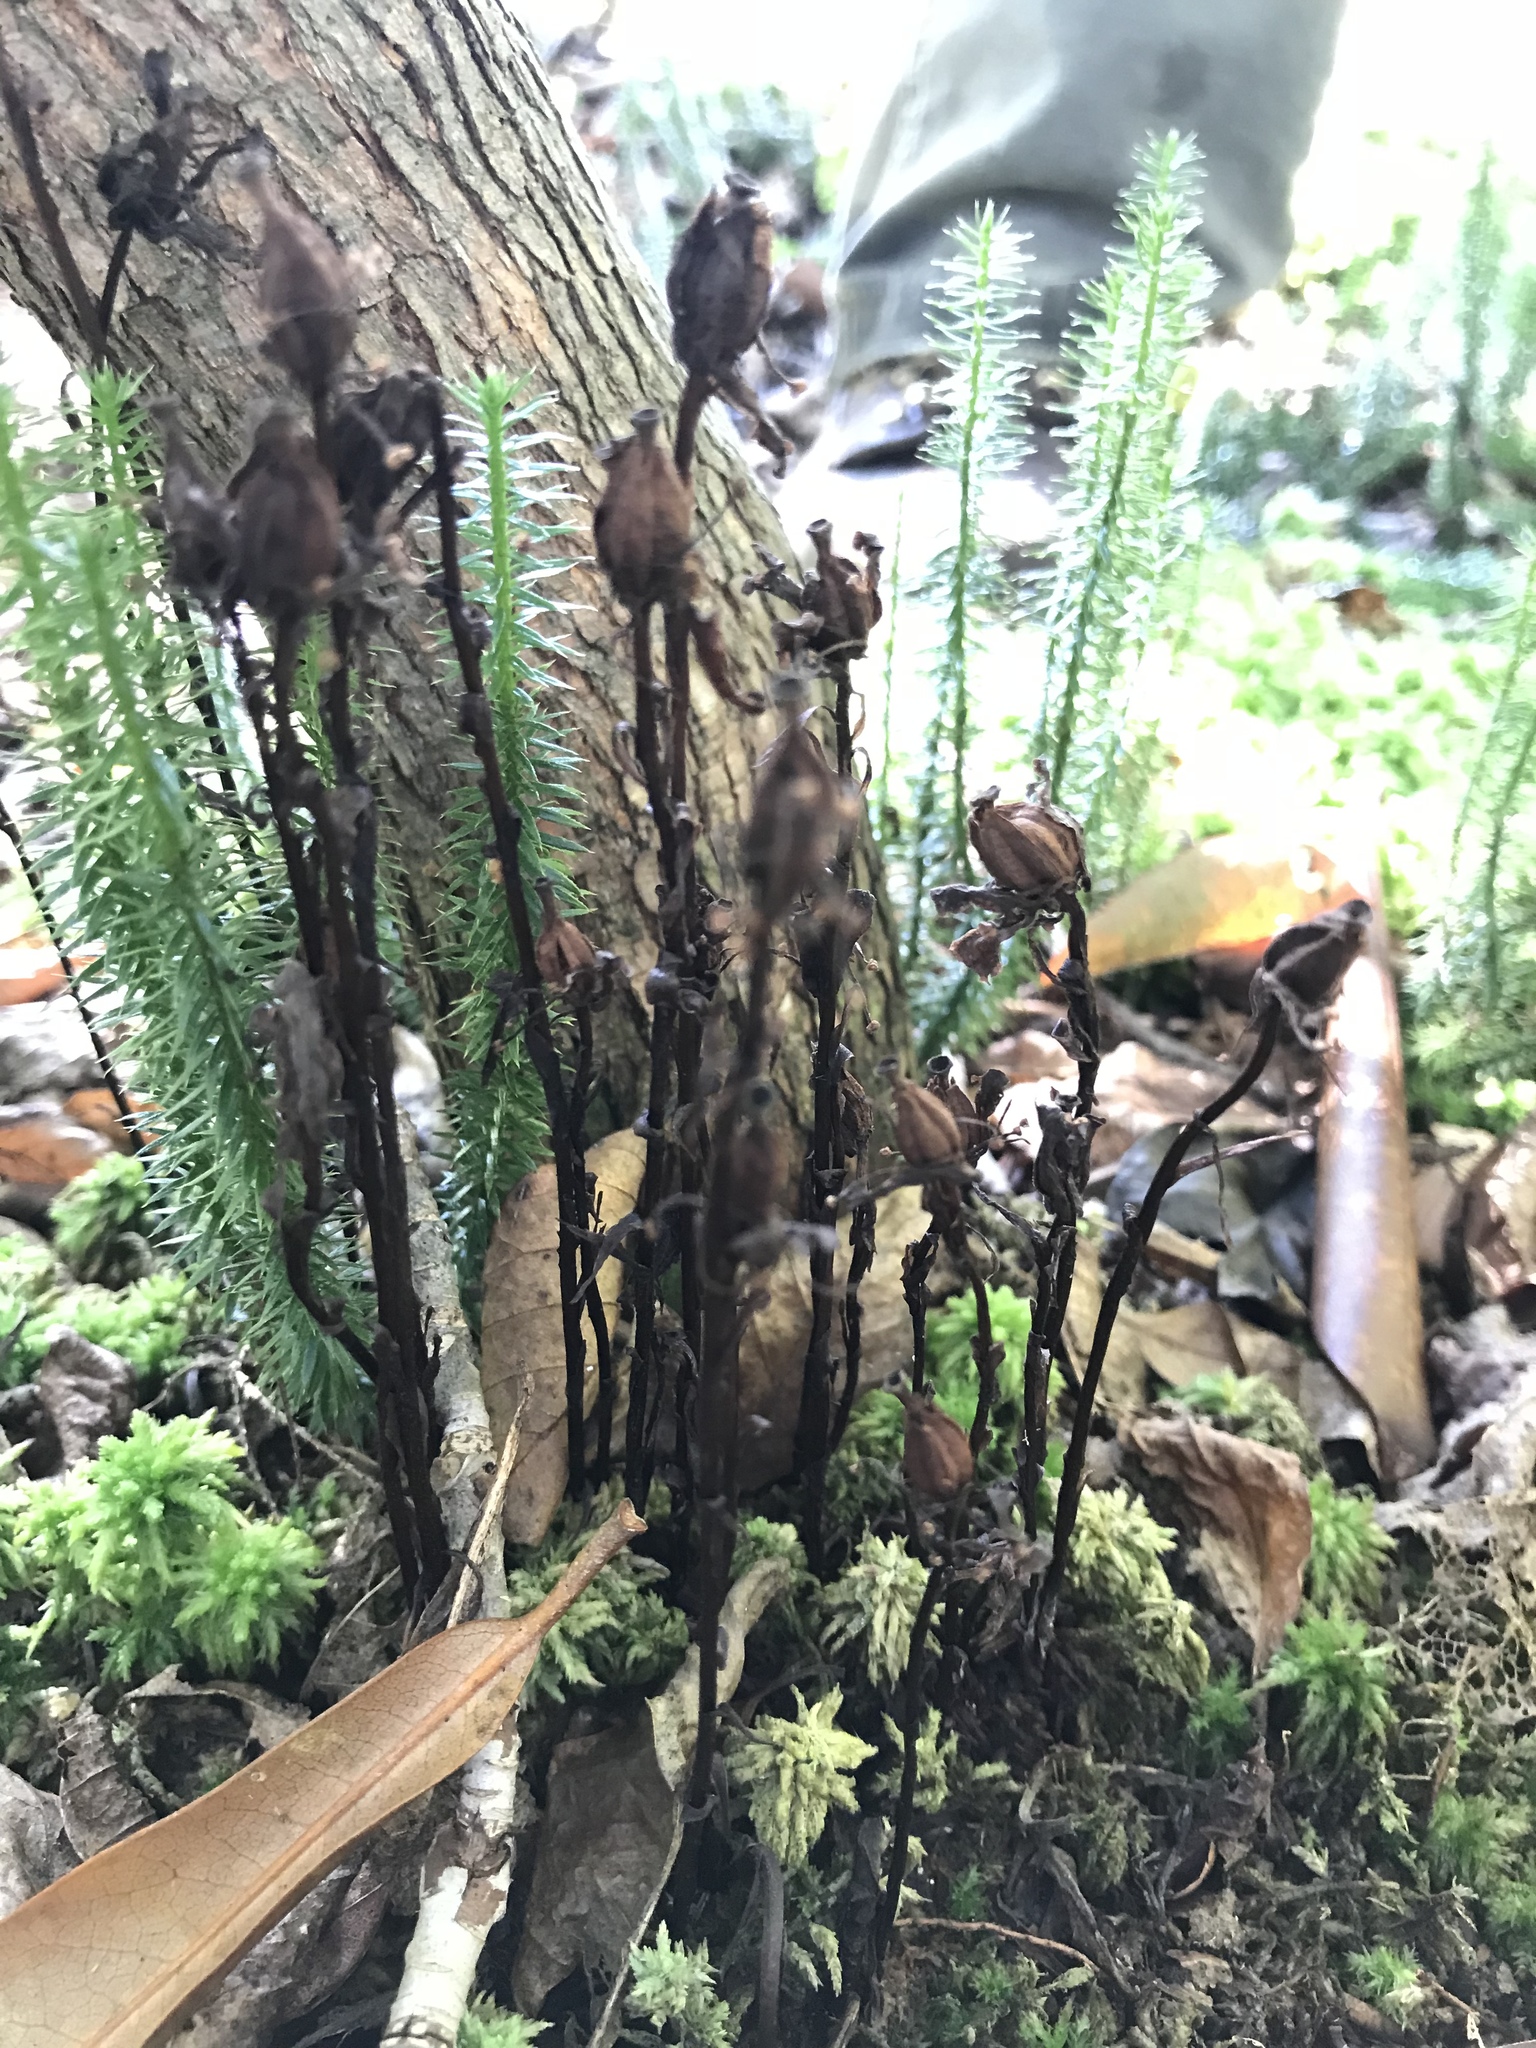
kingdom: Plantae
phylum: Tracheophyta
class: Magnoliopsida
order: Ericales
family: Ericaceae
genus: Monotropa
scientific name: Monotropa uniflora
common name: Convulsion root
